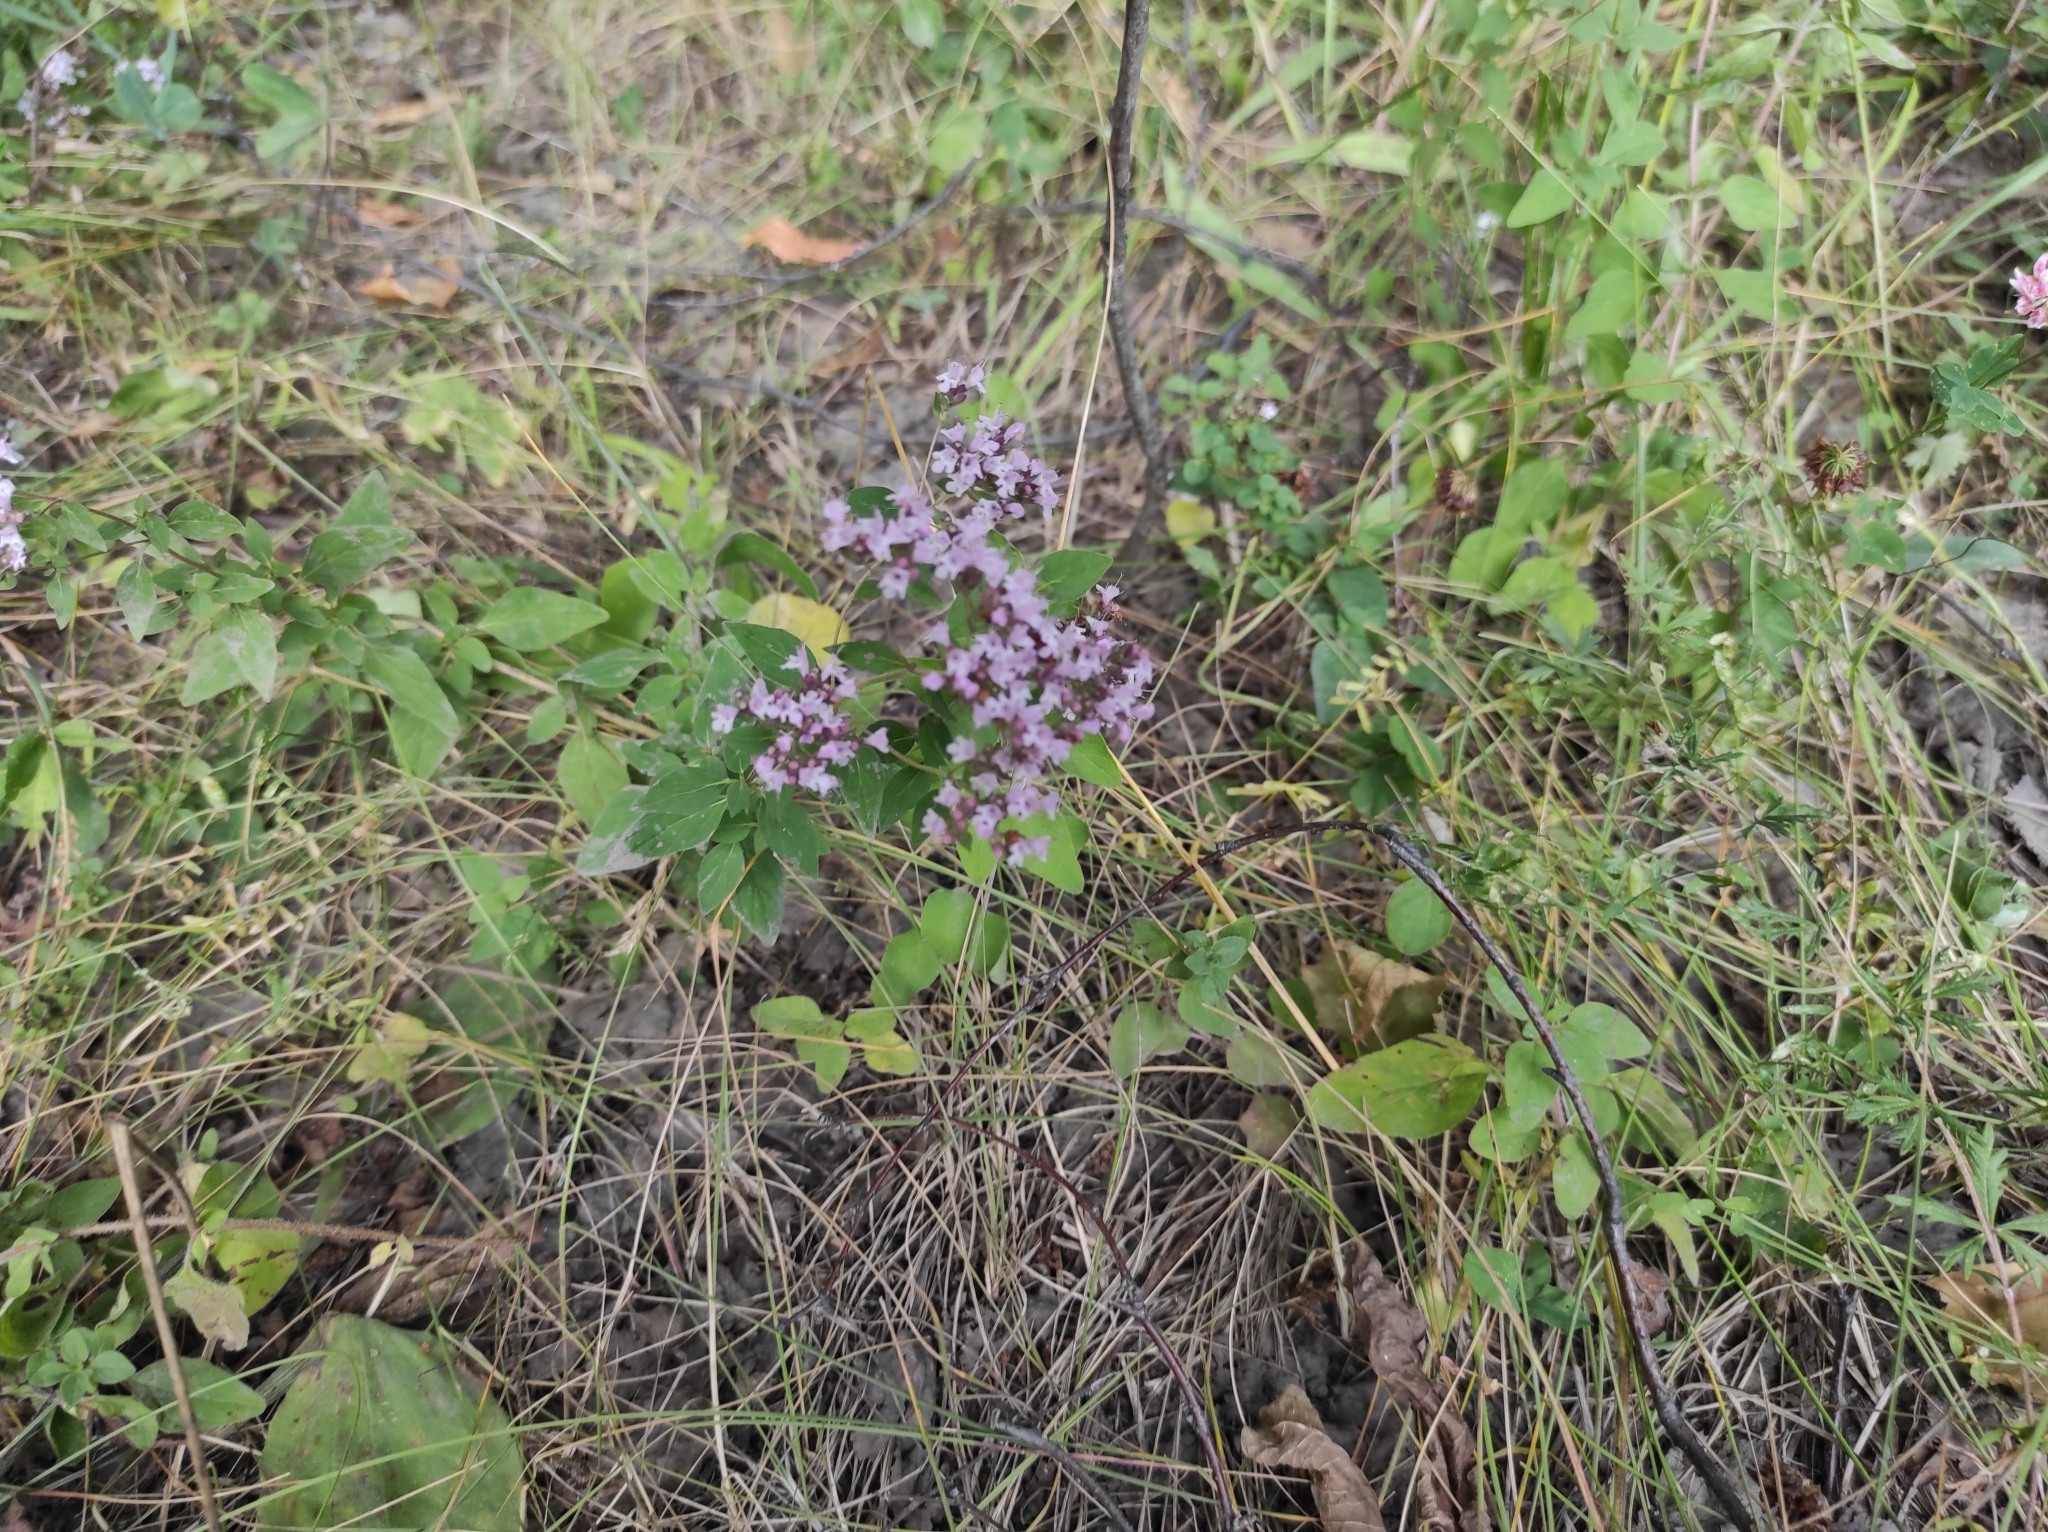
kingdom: Plantae
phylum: Tracheophyta
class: Magnoliopsida
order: Lamiales
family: Lamiaceae
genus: Origanum
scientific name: Origanum vulgare
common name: Wild marjoram
